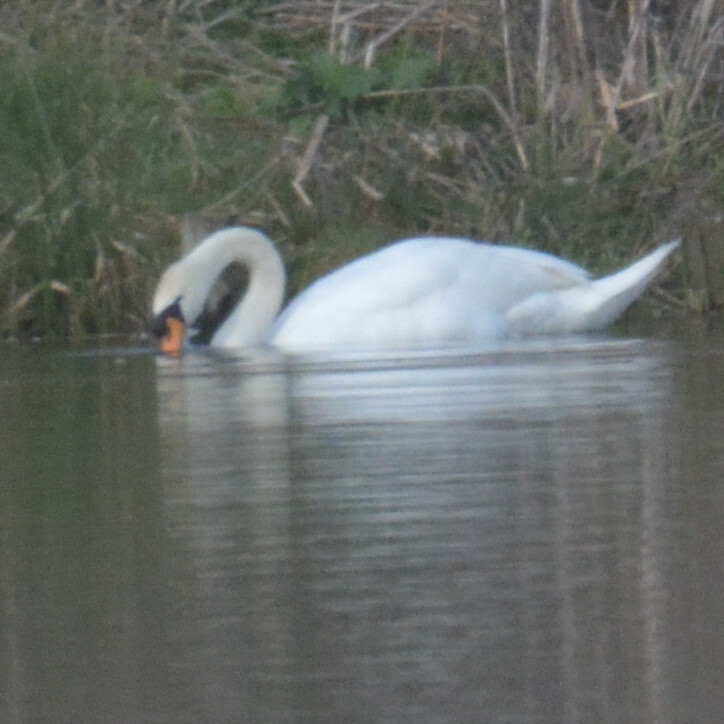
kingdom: Animalia
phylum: Chordata
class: Aves
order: Anseriformes
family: Anatidae
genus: Cygnus
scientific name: Cygnus olor
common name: Mute swan
